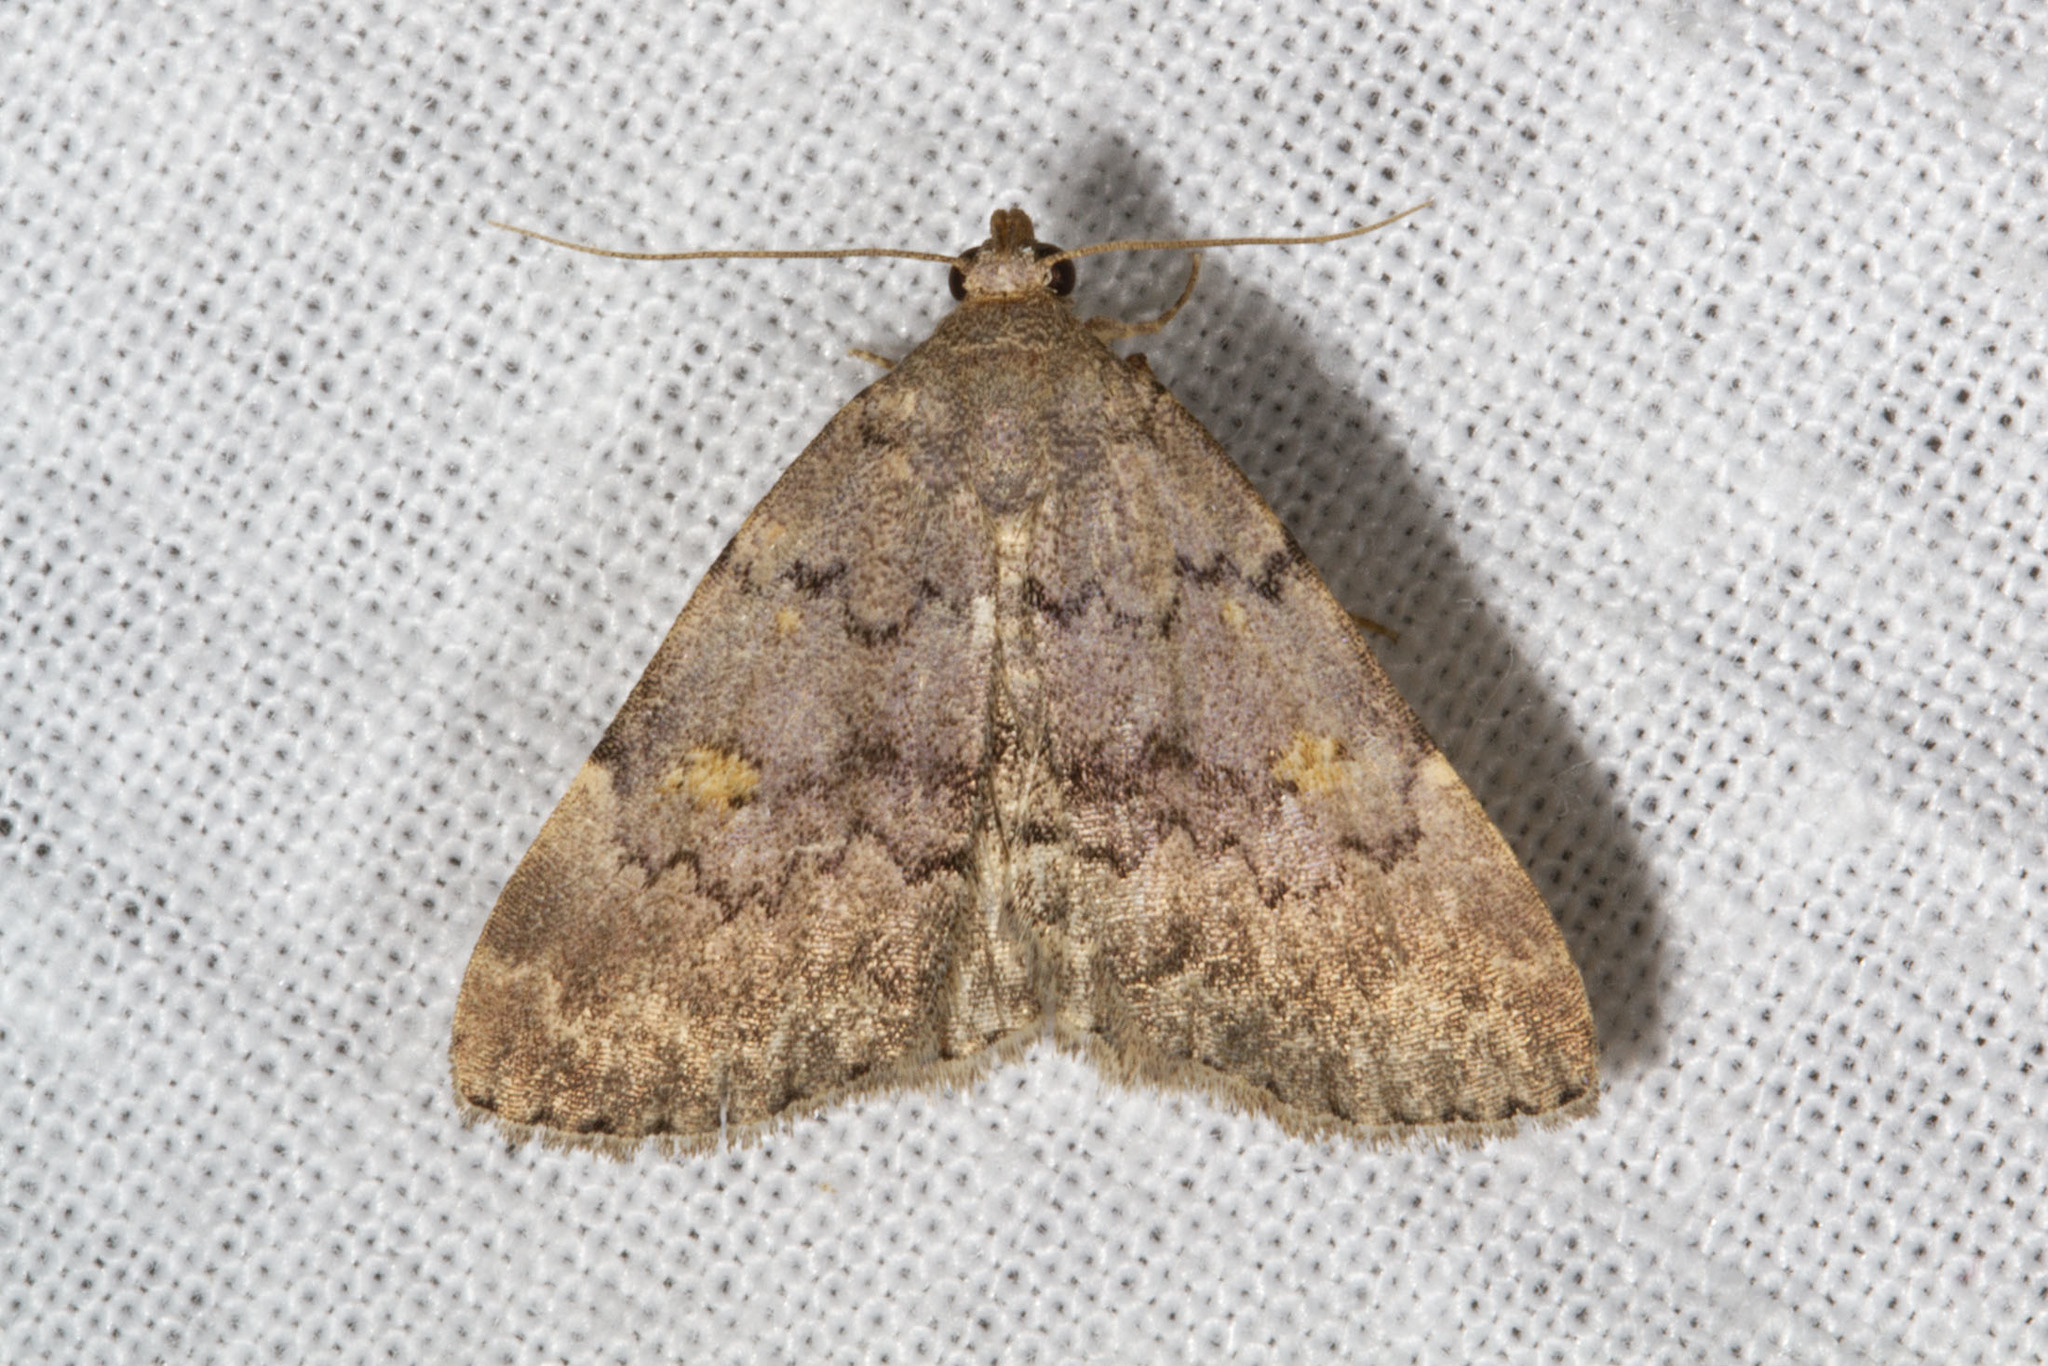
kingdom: Animalia
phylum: Arthropoda
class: Insecta
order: Lepidoptera
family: Erebidae
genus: Idia
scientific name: Idia aemula
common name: Common idia moth
